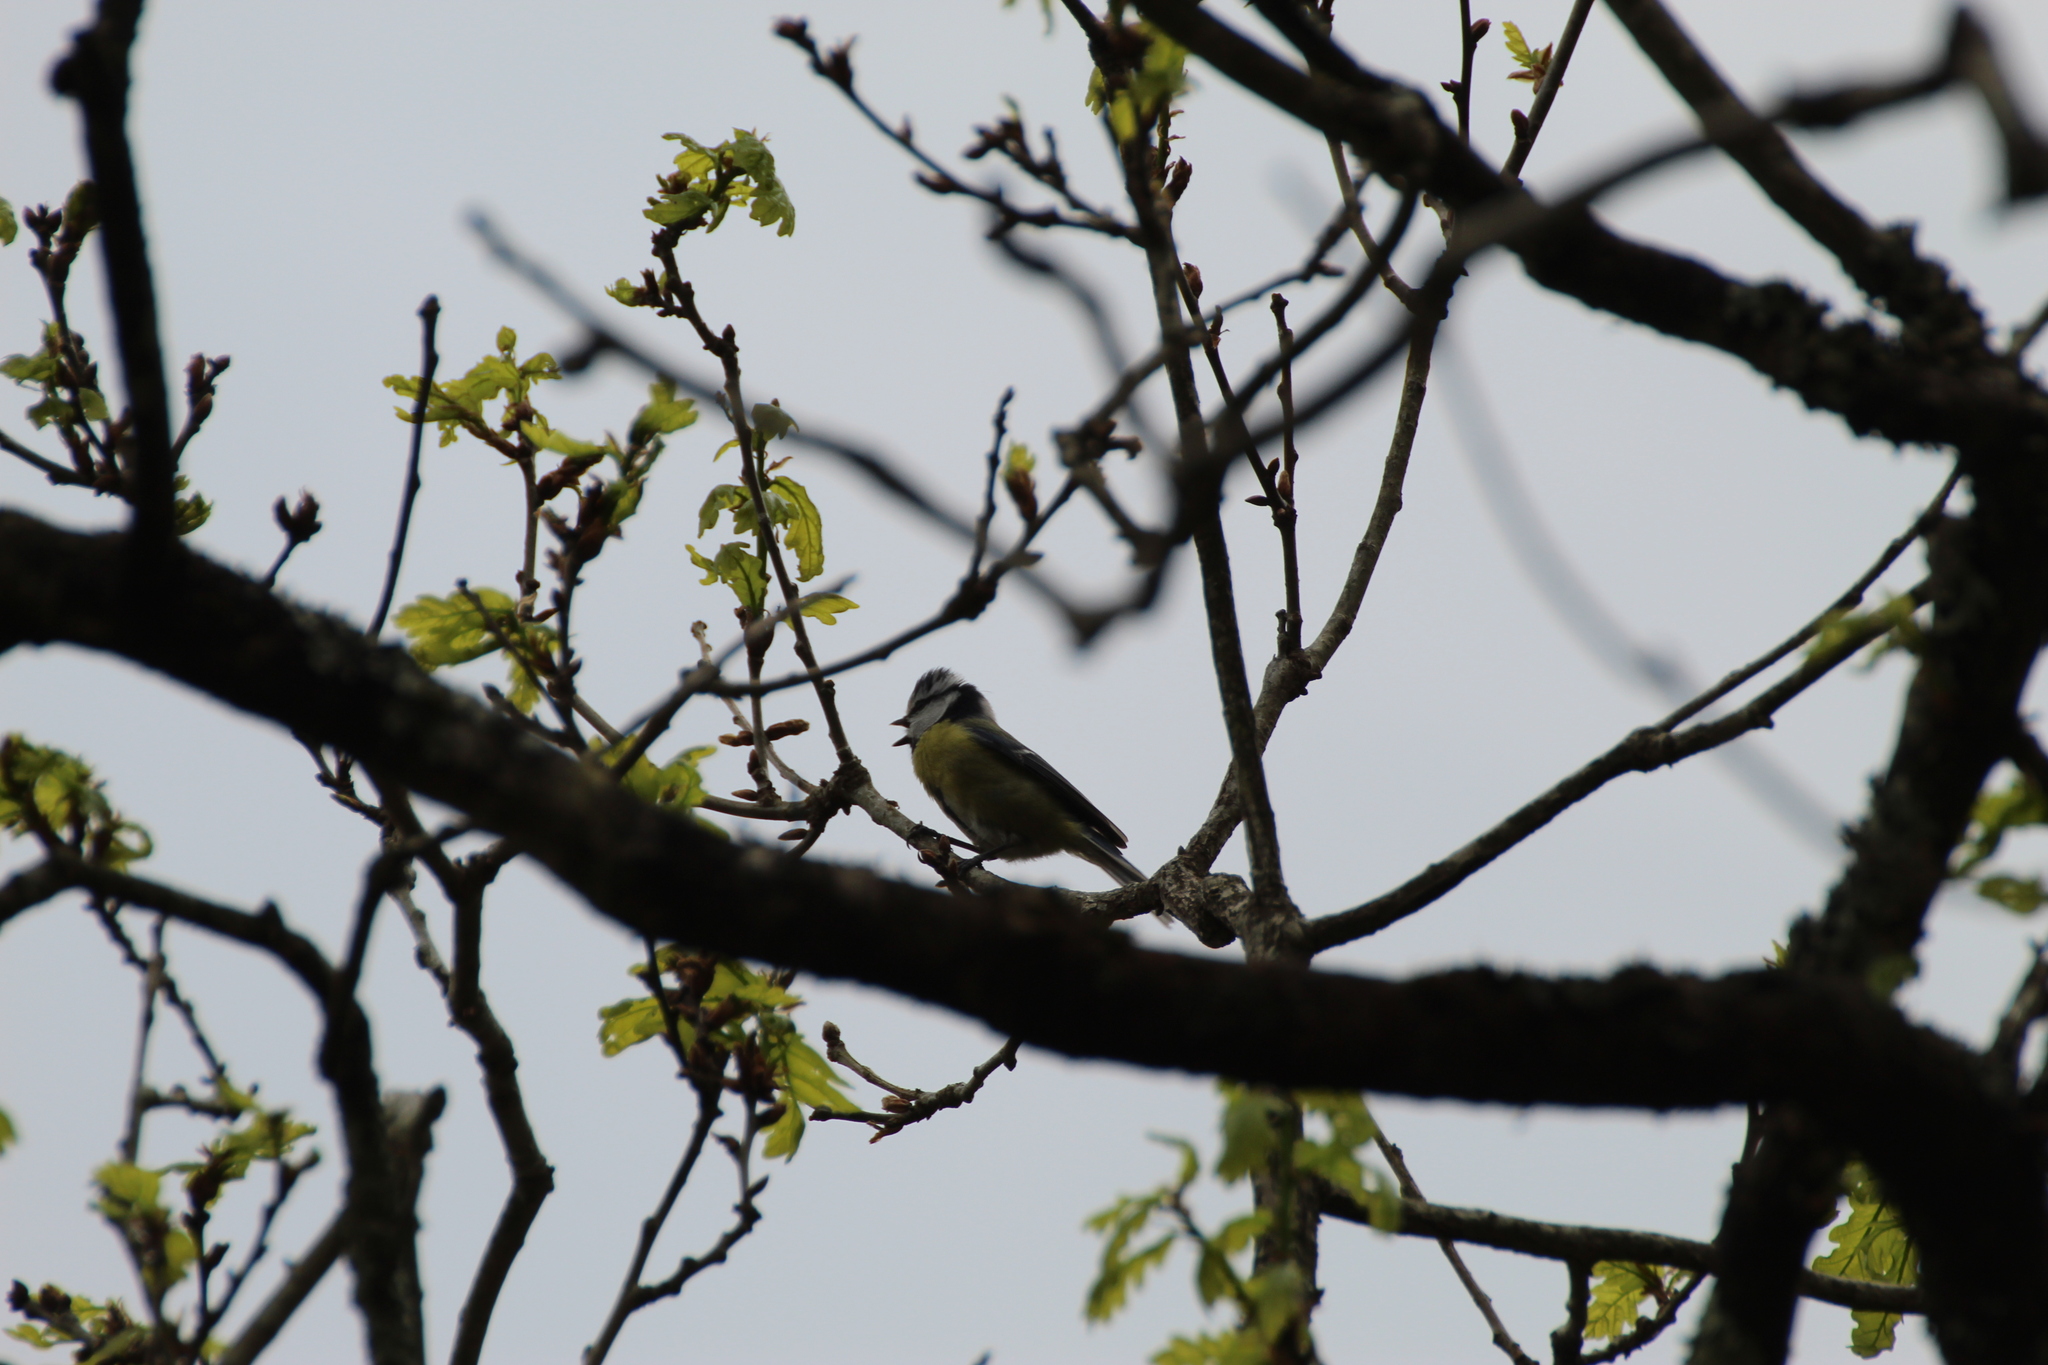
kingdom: Animalia
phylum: Chordata
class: Aves
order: Passeriformes
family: Paridae
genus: Cyanistes
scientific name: Cyanistes caeruleus
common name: Eurasian blue tit
